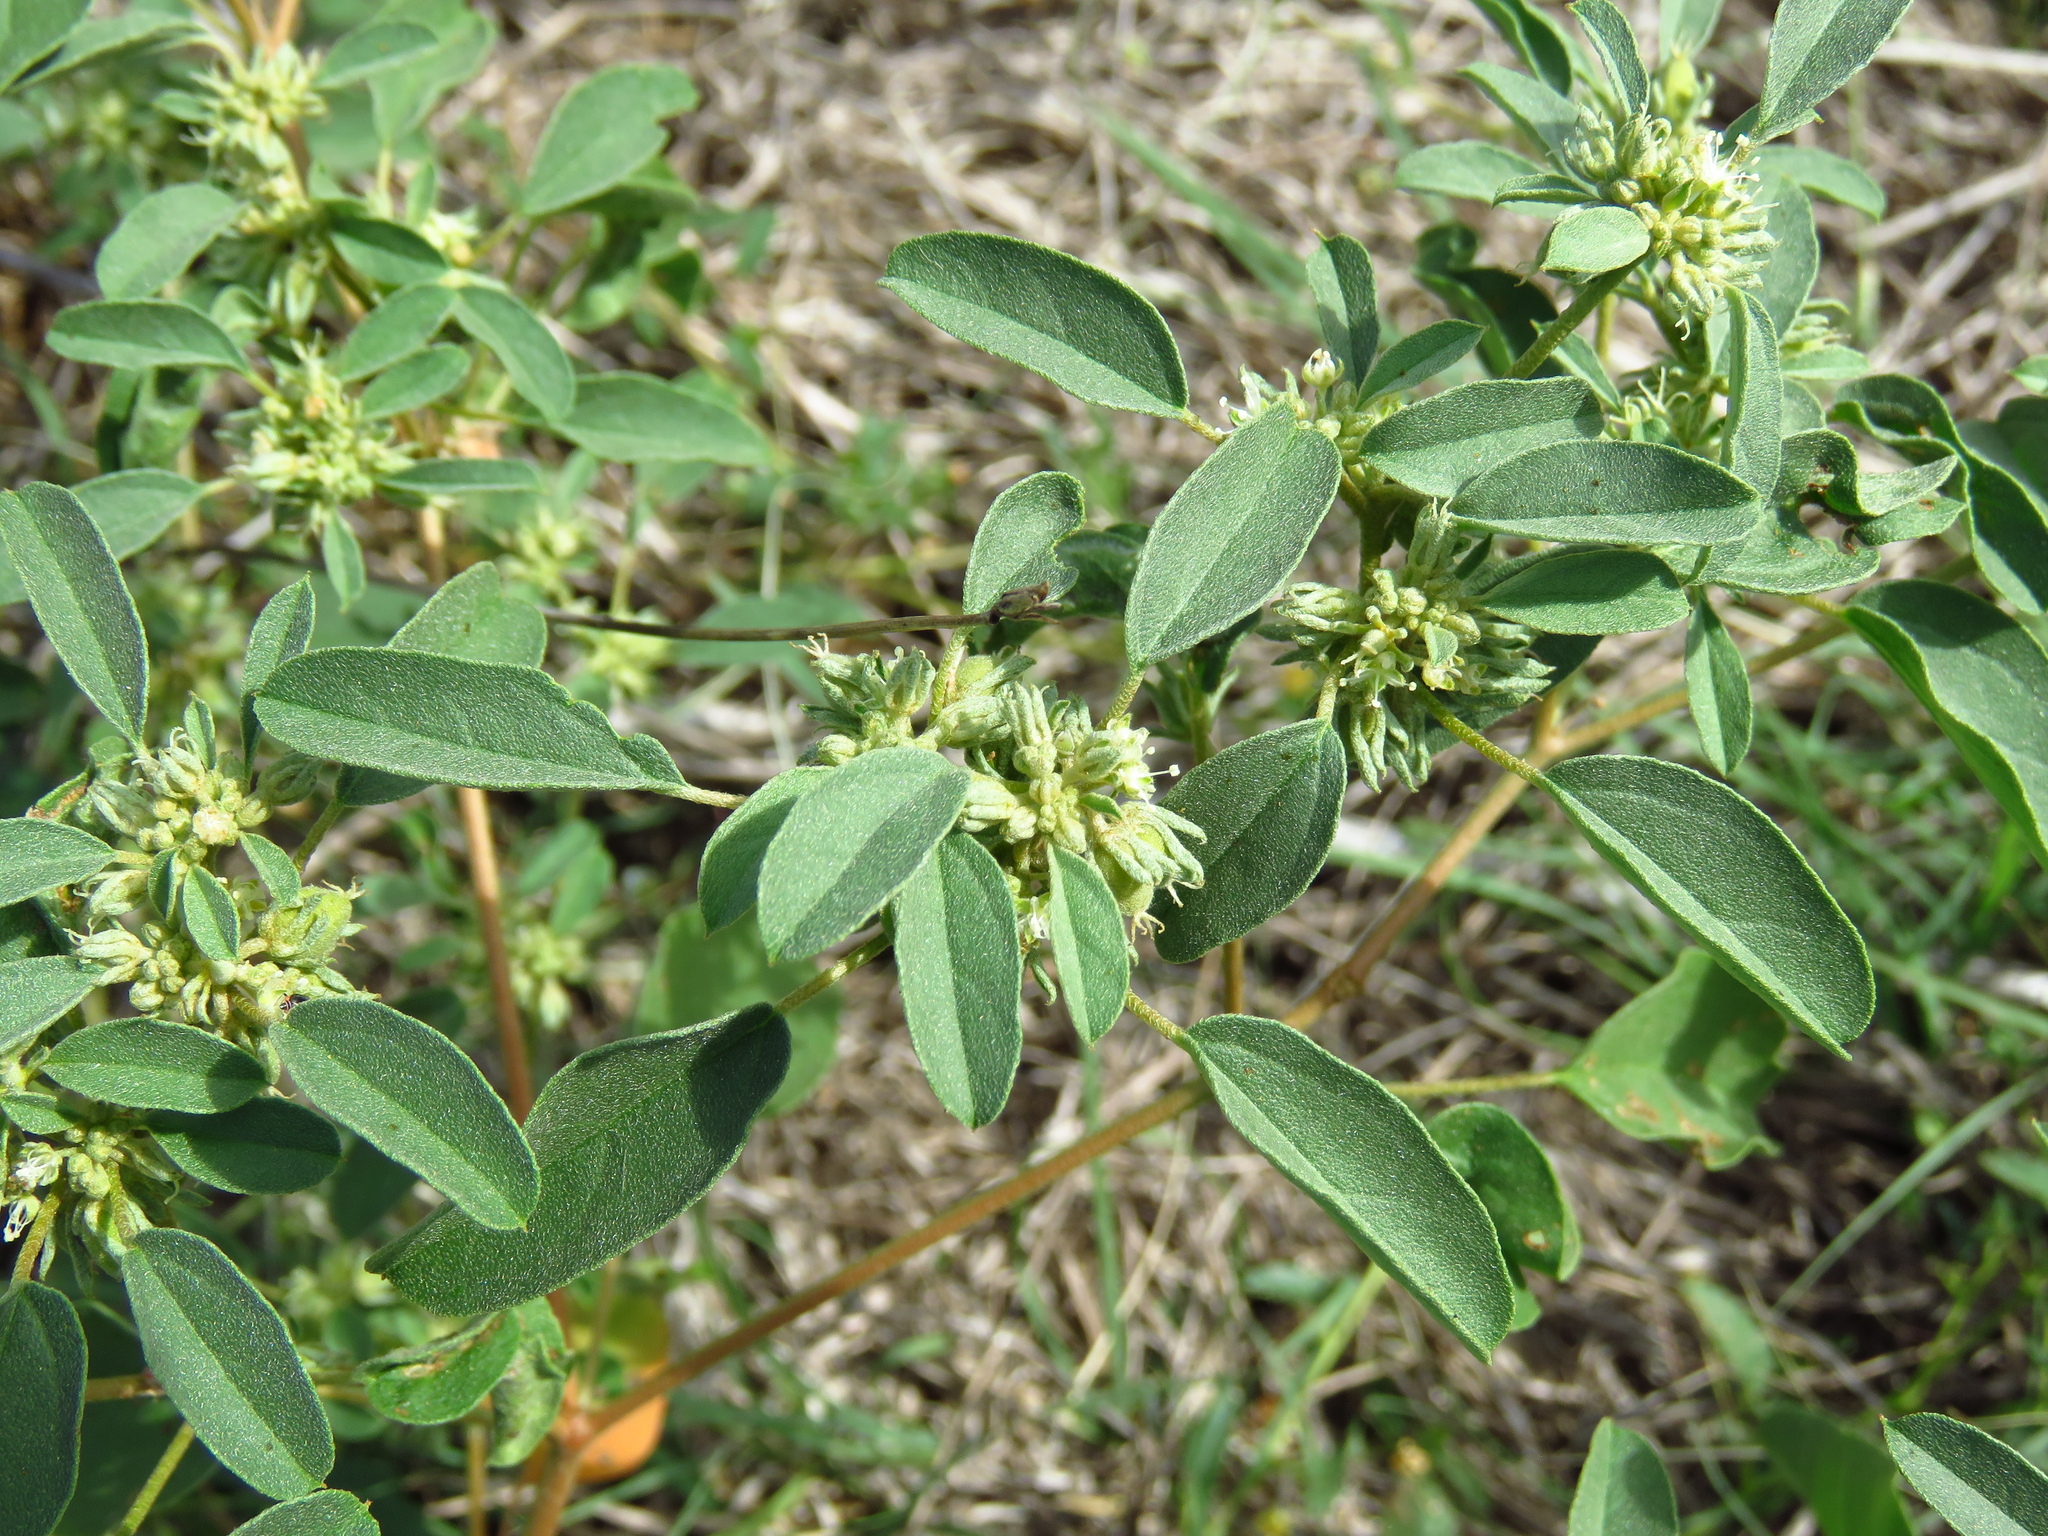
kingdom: Plantae
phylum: Tracheophyta
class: Magnoliopsida
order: Malpighiales
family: Euphorbiaceae
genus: Croton
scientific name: Croton monanthogynus
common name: One-seed croton
